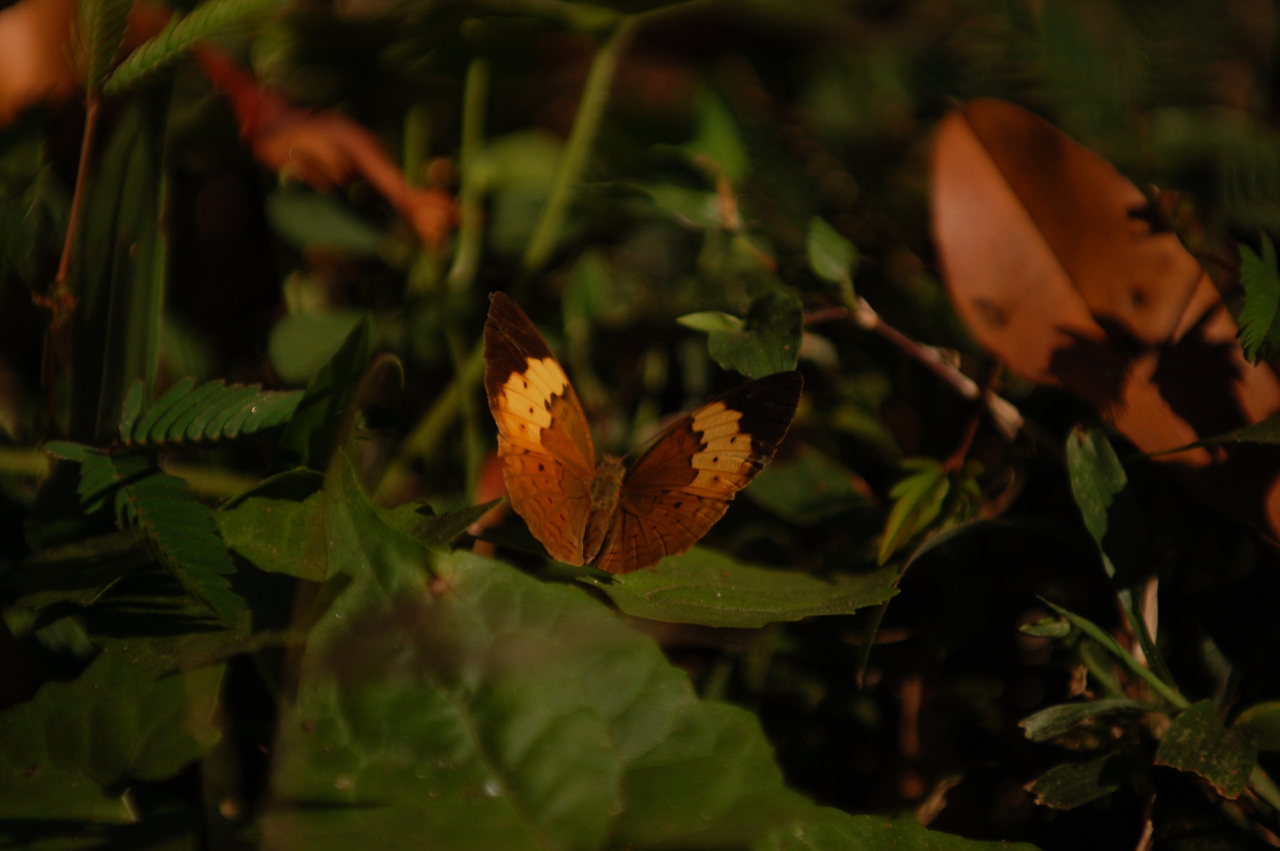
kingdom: Animalia
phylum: Arthropoda
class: Insecta
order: Lepidoptera
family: Nymphalidae
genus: Cupha
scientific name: Cupha erymanthis
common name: Rustic
